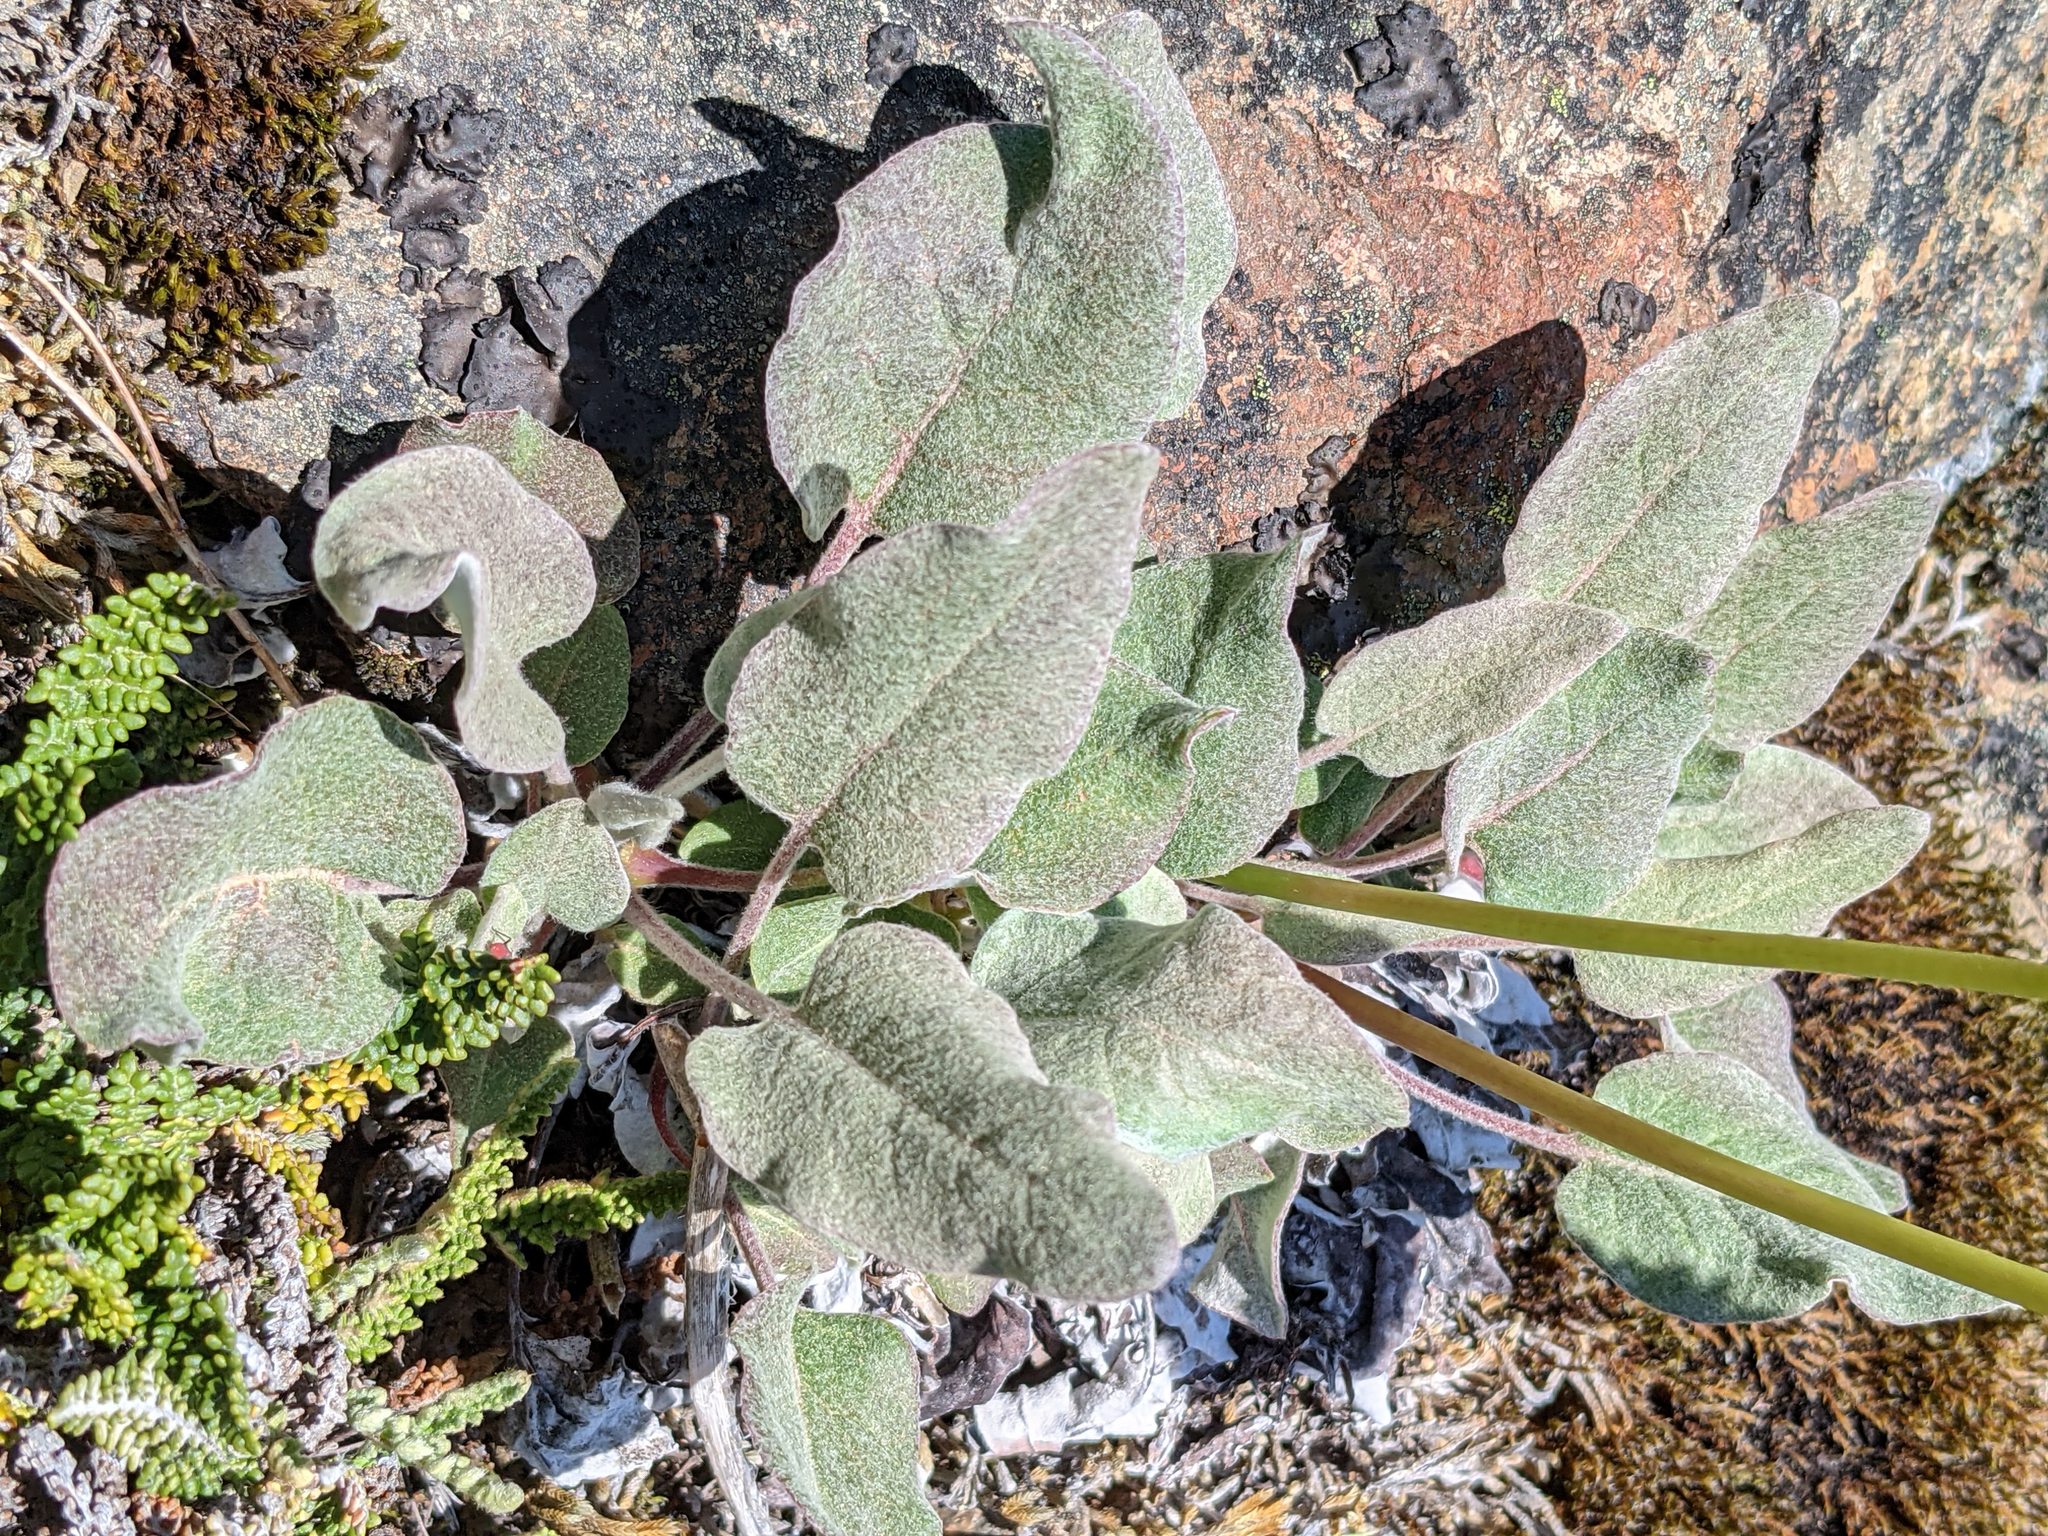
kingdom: Plantae
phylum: Tracheophyta
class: Magnoliopsida
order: Caryophyllales
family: Polygonaceae
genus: Eriogonum
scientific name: Eriogonum compositum
